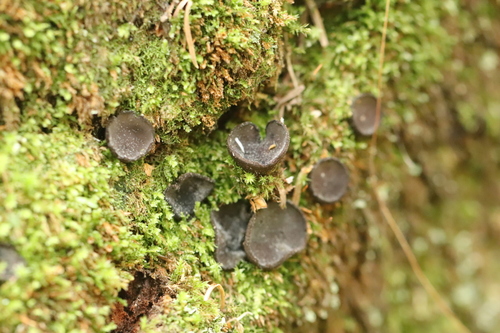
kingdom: Fungi
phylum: Ascomycota
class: Pezizomycetes
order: Pezizales
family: Sarcosomataceae
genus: Pseudoplectania
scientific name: Pseudoplectania nigrella
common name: Ebony cup
